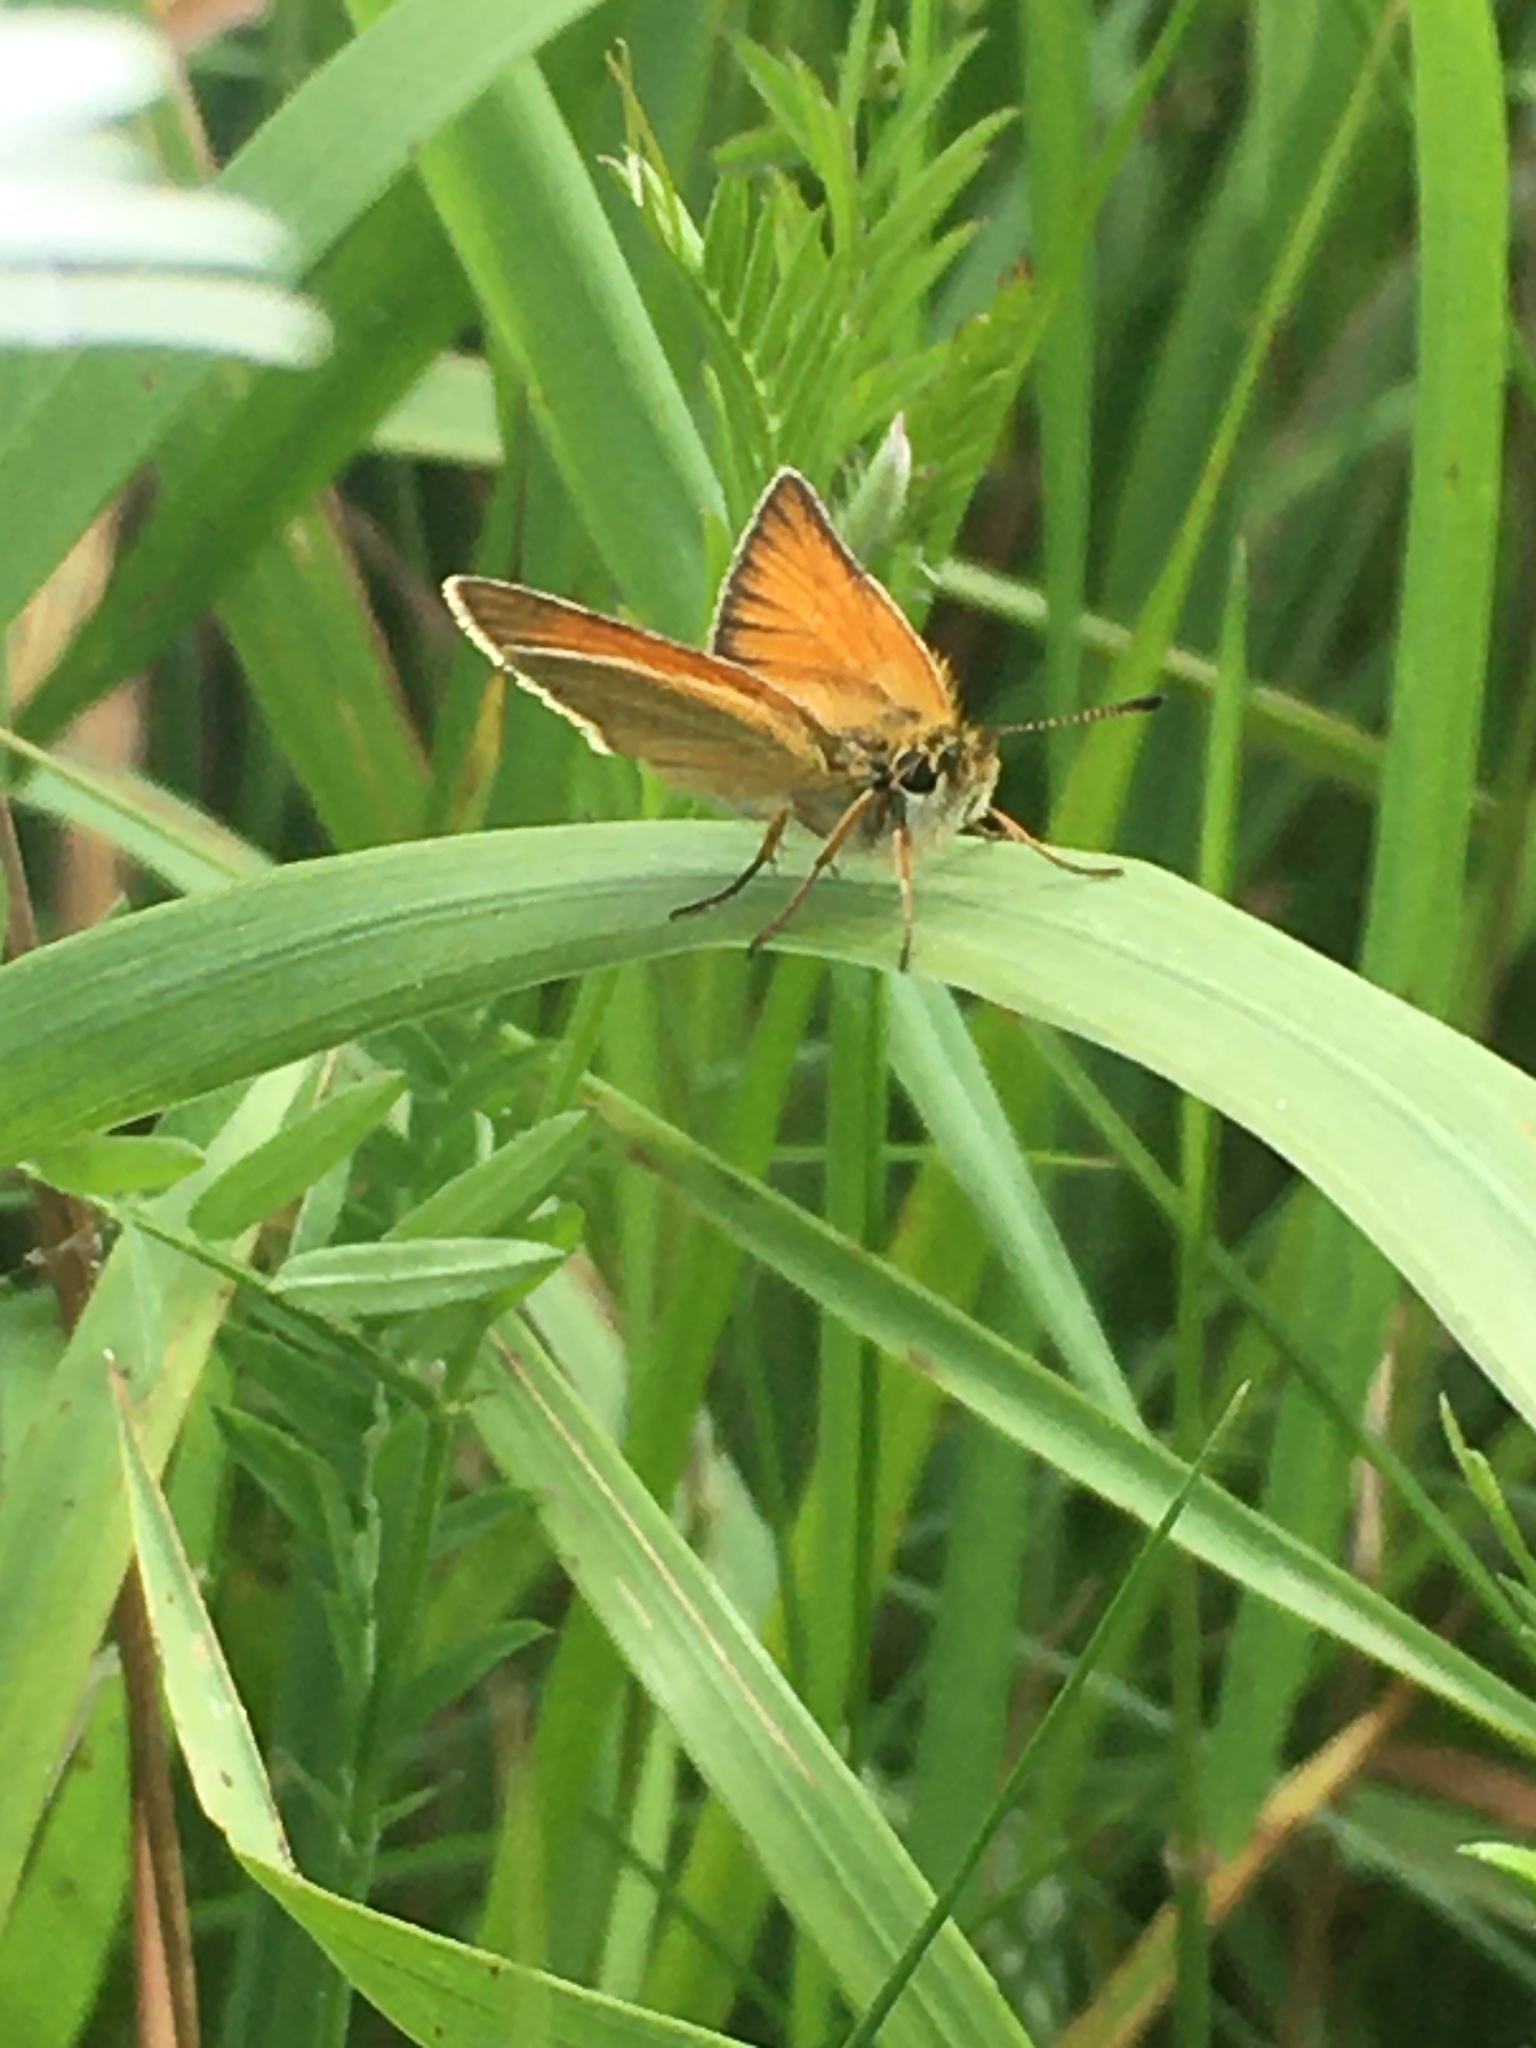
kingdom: Animalia
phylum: Arthropoda
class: Insecta
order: Lepidoptera
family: Hesperiidae
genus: Thymelicus
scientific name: Thymelicus lineola
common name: Essex skipper
